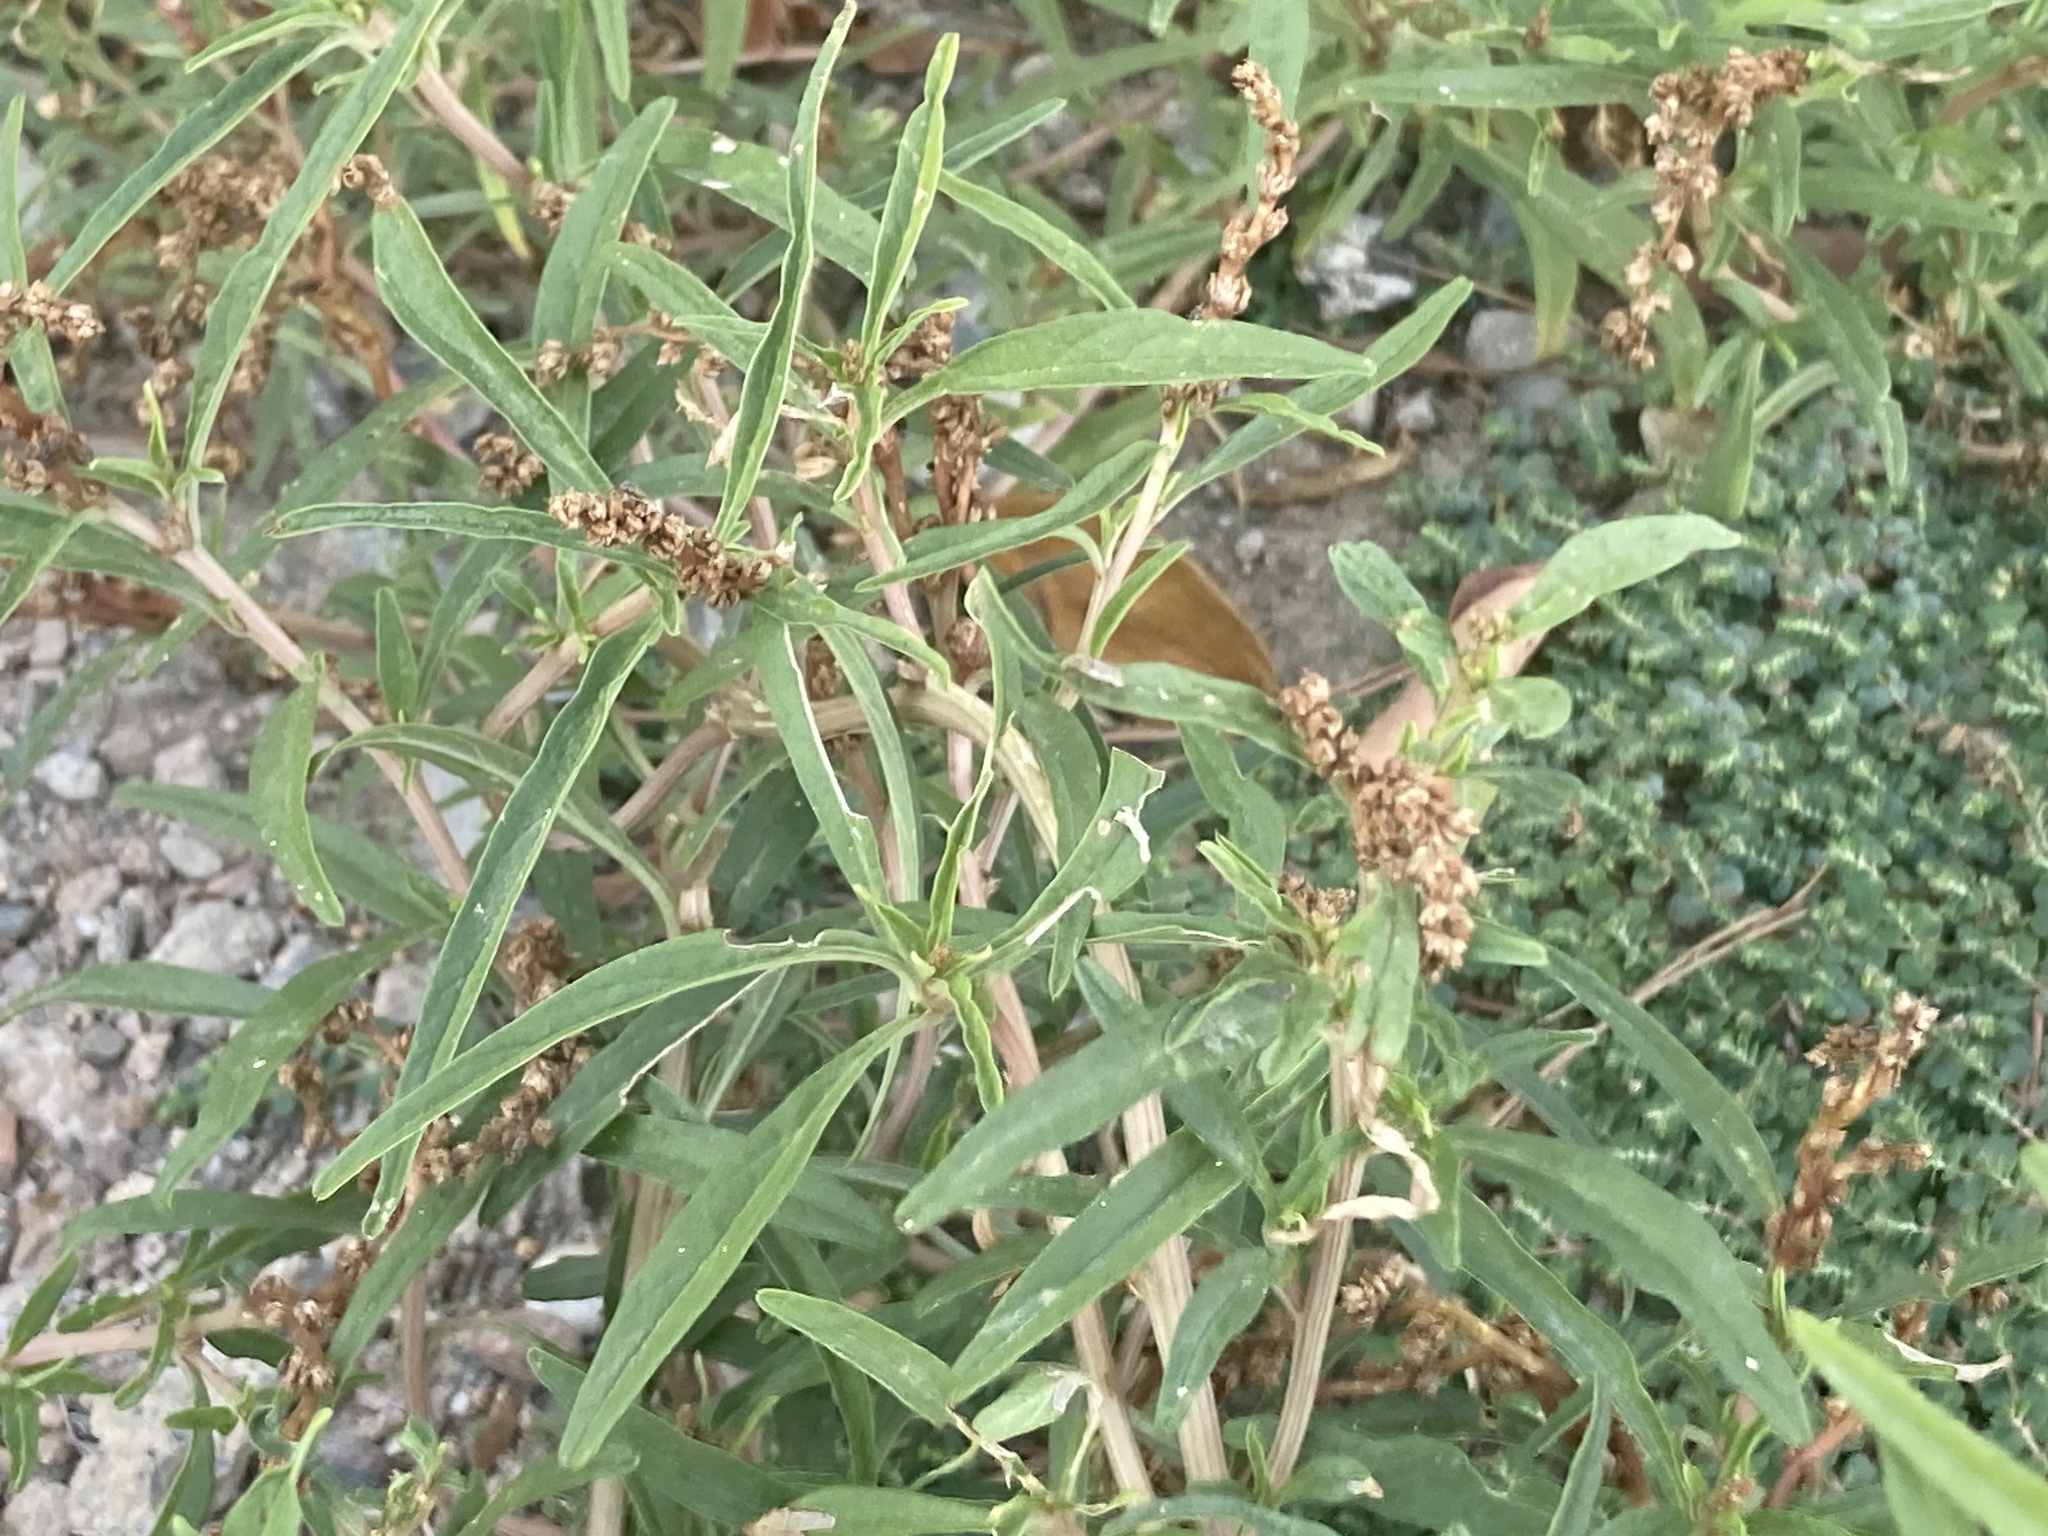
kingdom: Plantae
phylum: Tracheophyta
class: Magnoliopsida
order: Caryophyllales
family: Amaranthaceae
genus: Amaranthus
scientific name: Amaranthus muricatus
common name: African amaranth
